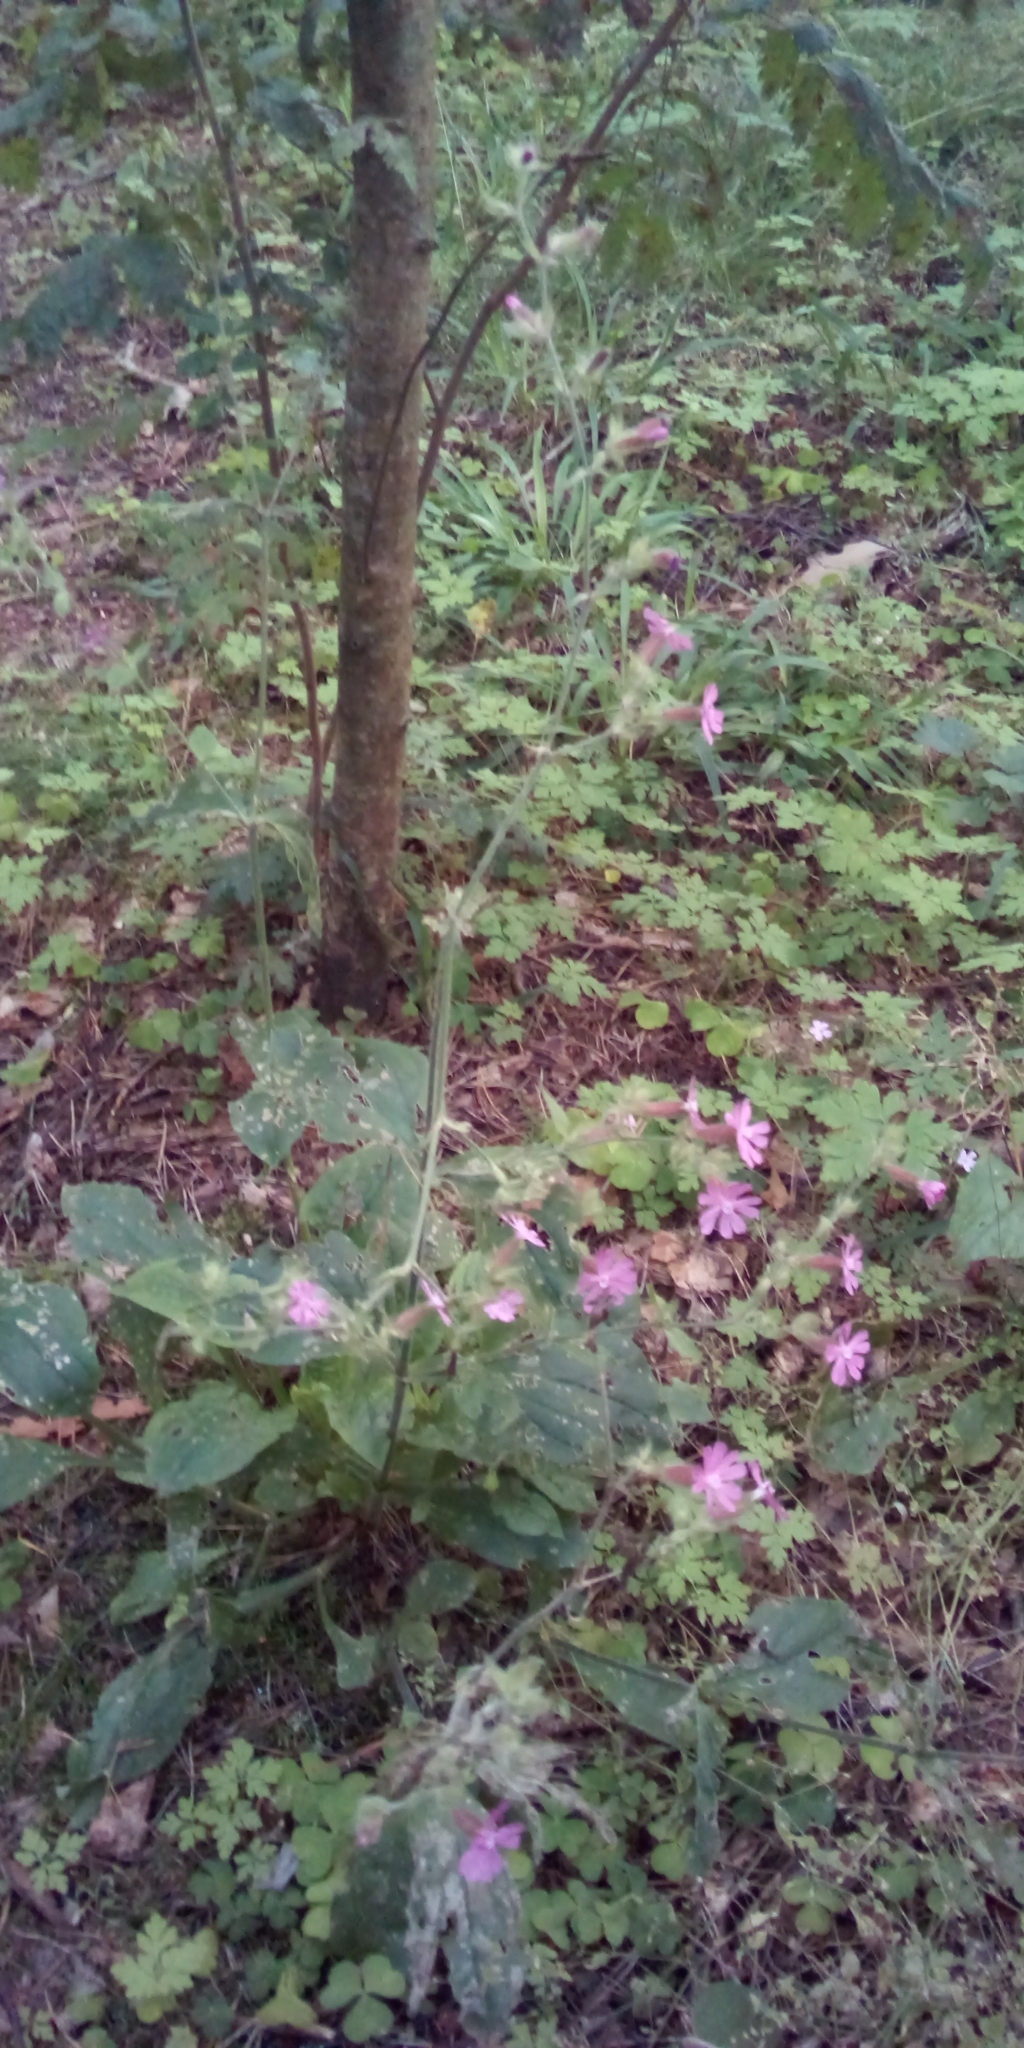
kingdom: Plantae
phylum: Tracheophyta
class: Magnoliopsida
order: Caryophyllales
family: Caryophyllaceae
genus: Silene
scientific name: Silene dioica
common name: Red campion
